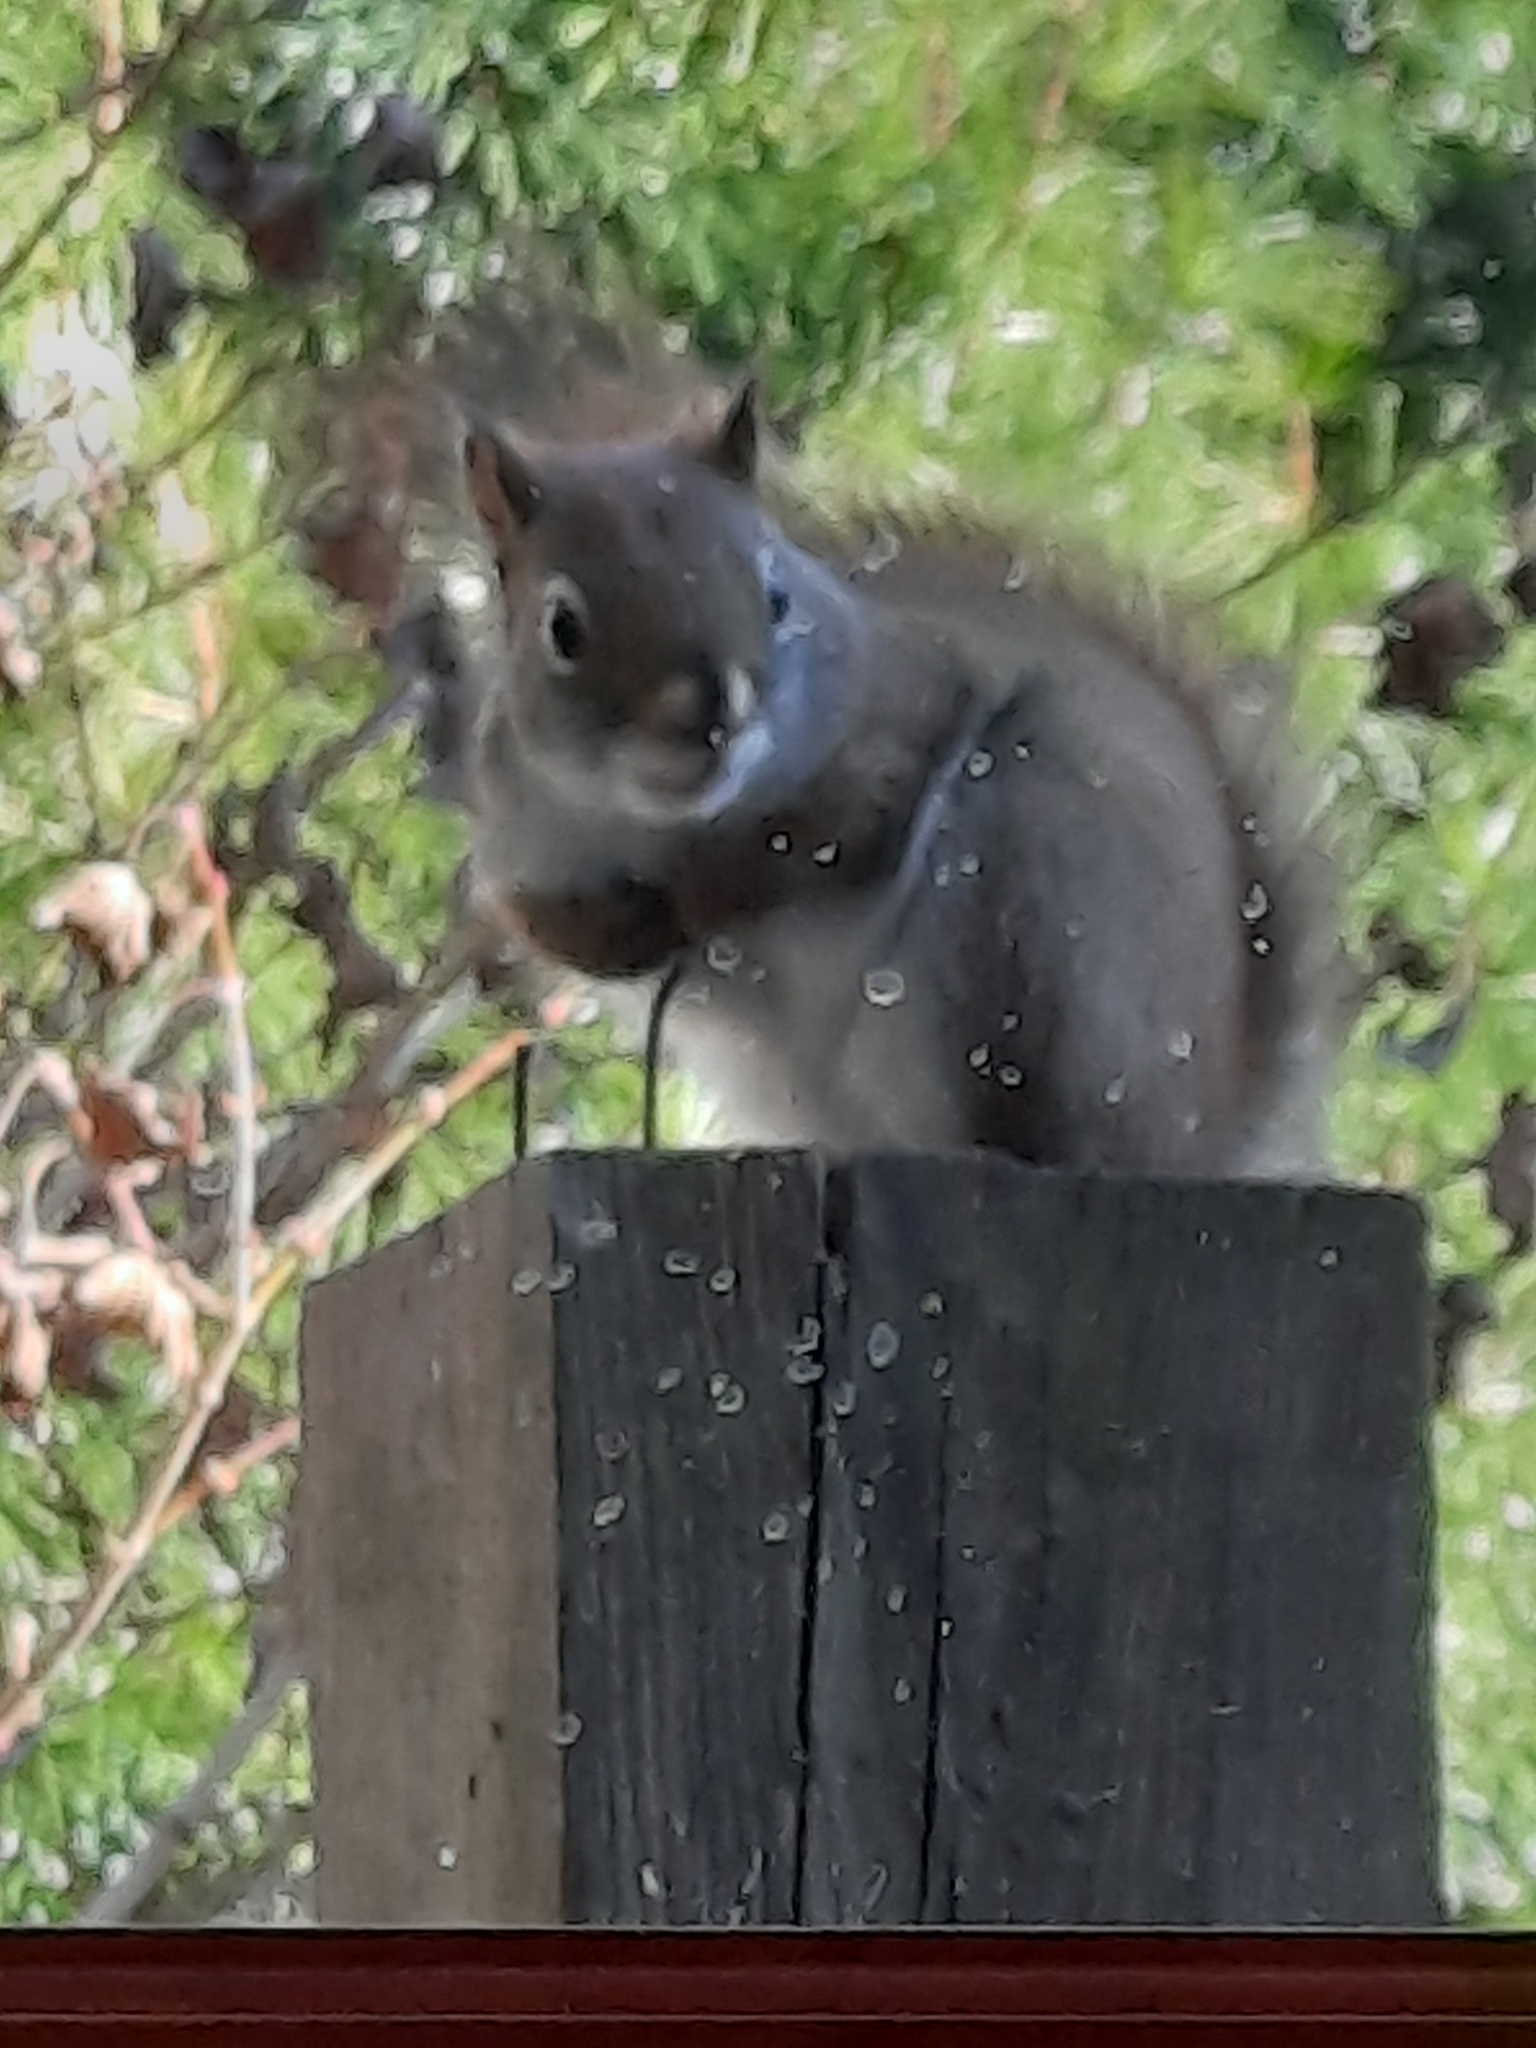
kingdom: Animalia
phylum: Chordata
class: Mammalia
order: Rodentia
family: Sciuridae
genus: Tamiasciurus
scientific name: Tamiasciurus hudsonicus
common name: Red squirrel
